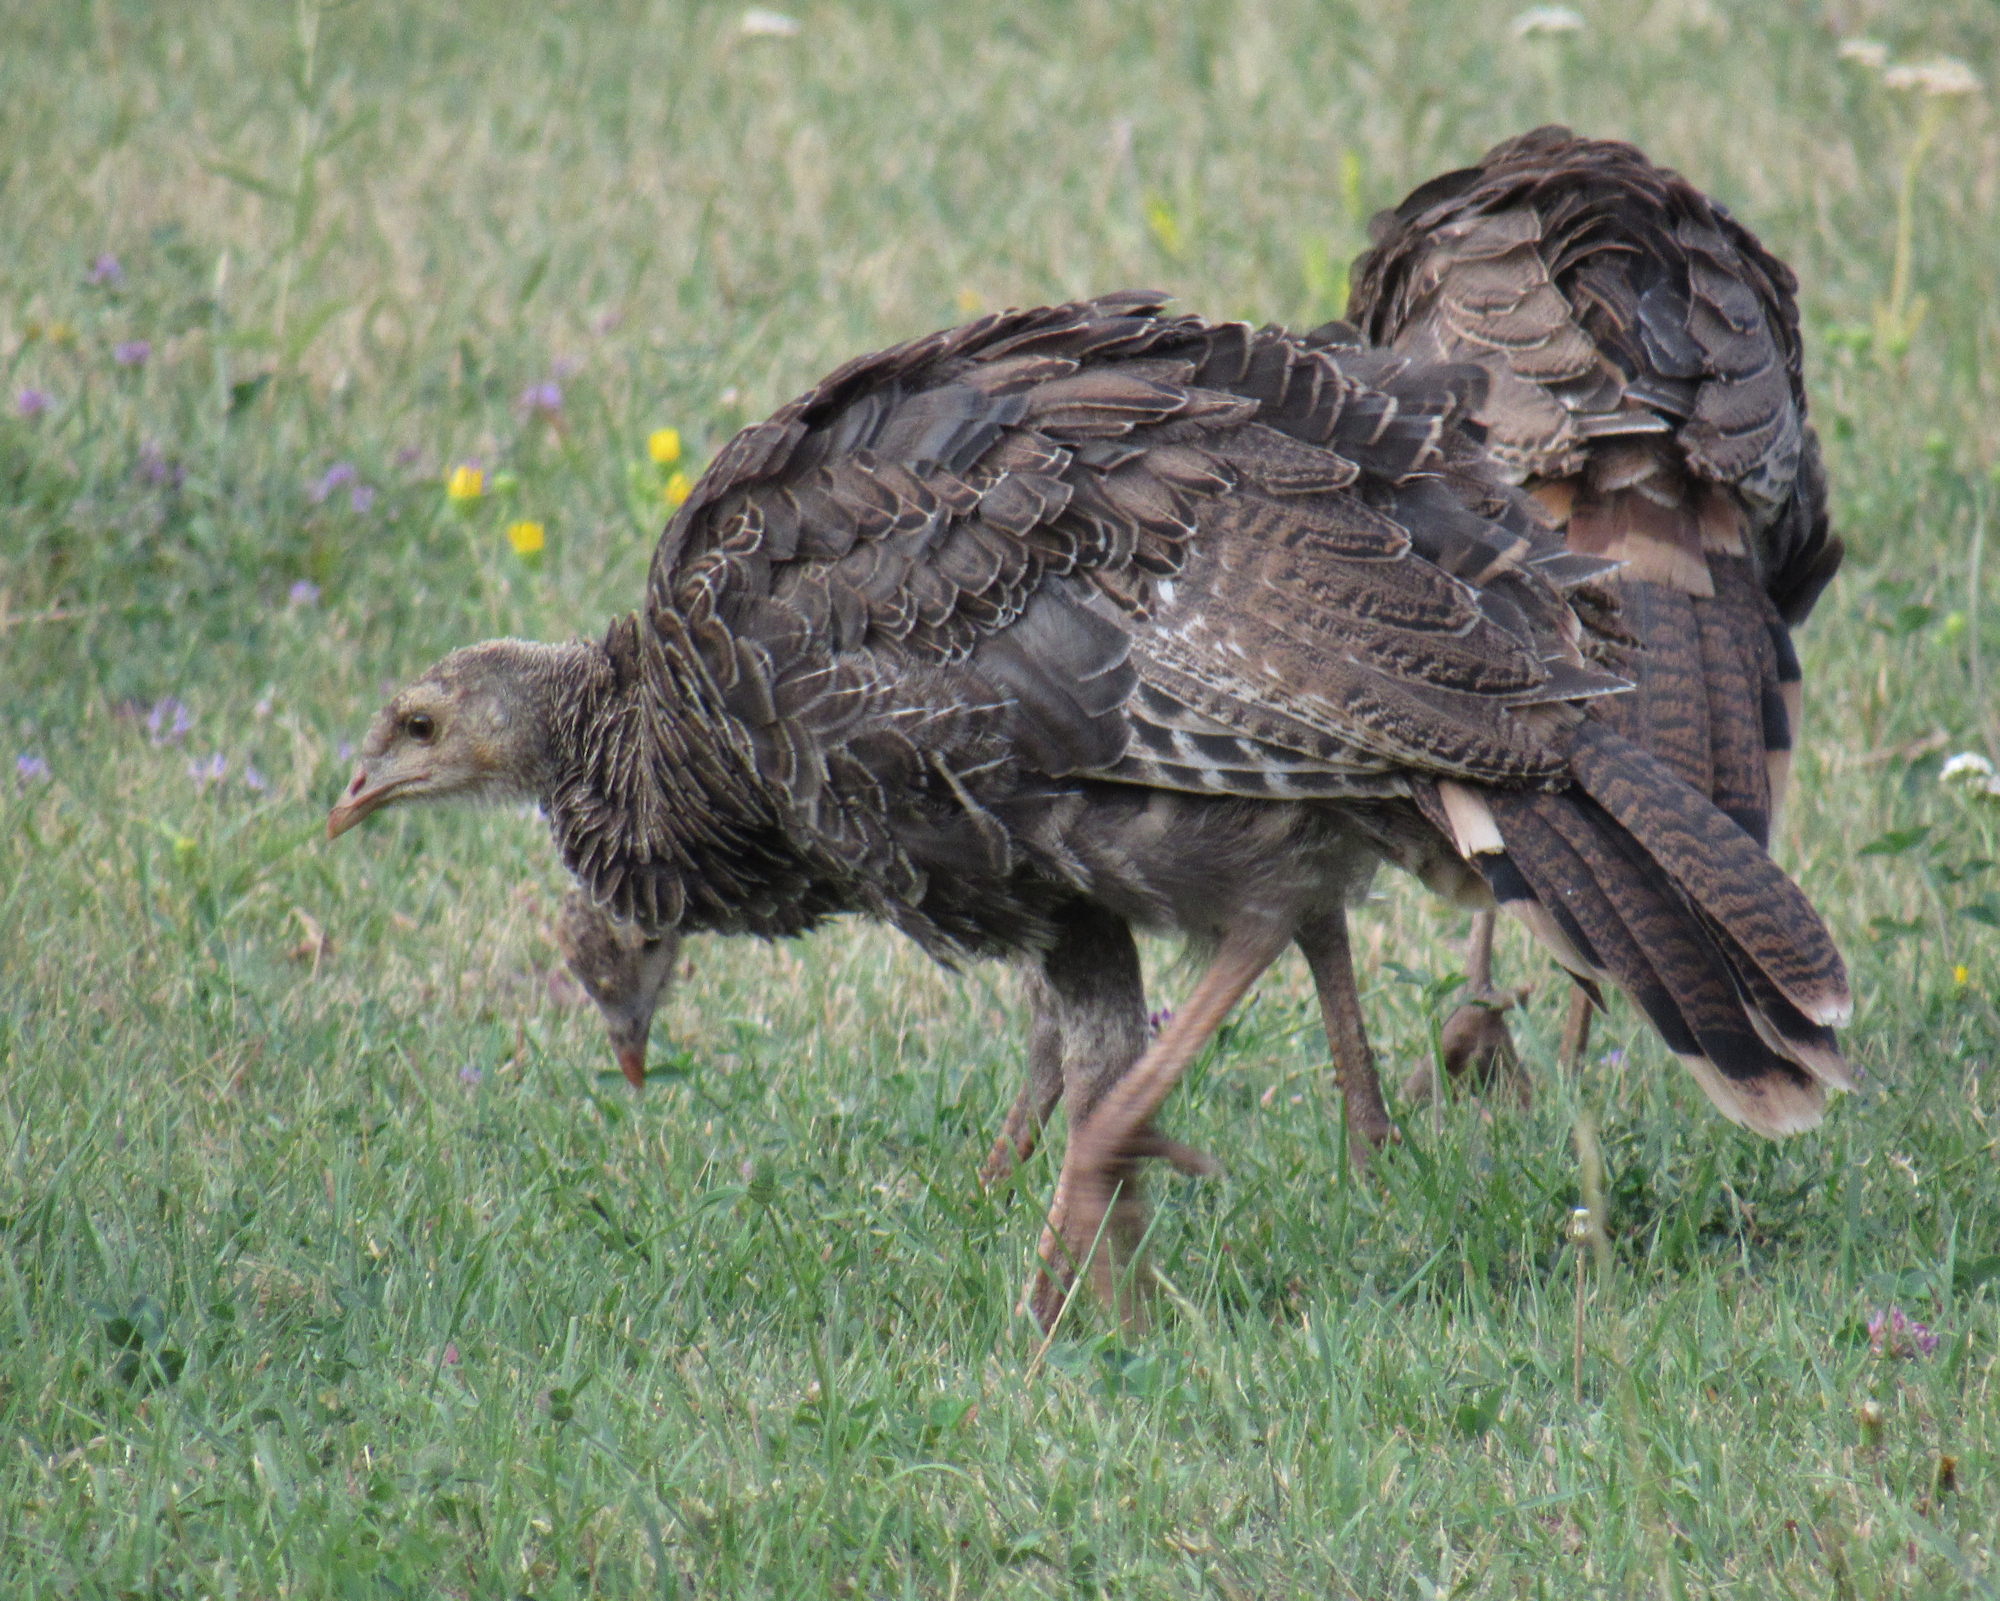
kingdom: Animalia
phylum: Chordata
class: Aves
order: Galliformes
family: Phasianidae
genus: Meleagris
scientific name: Meleagris gallopavo
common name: Wild turkey
